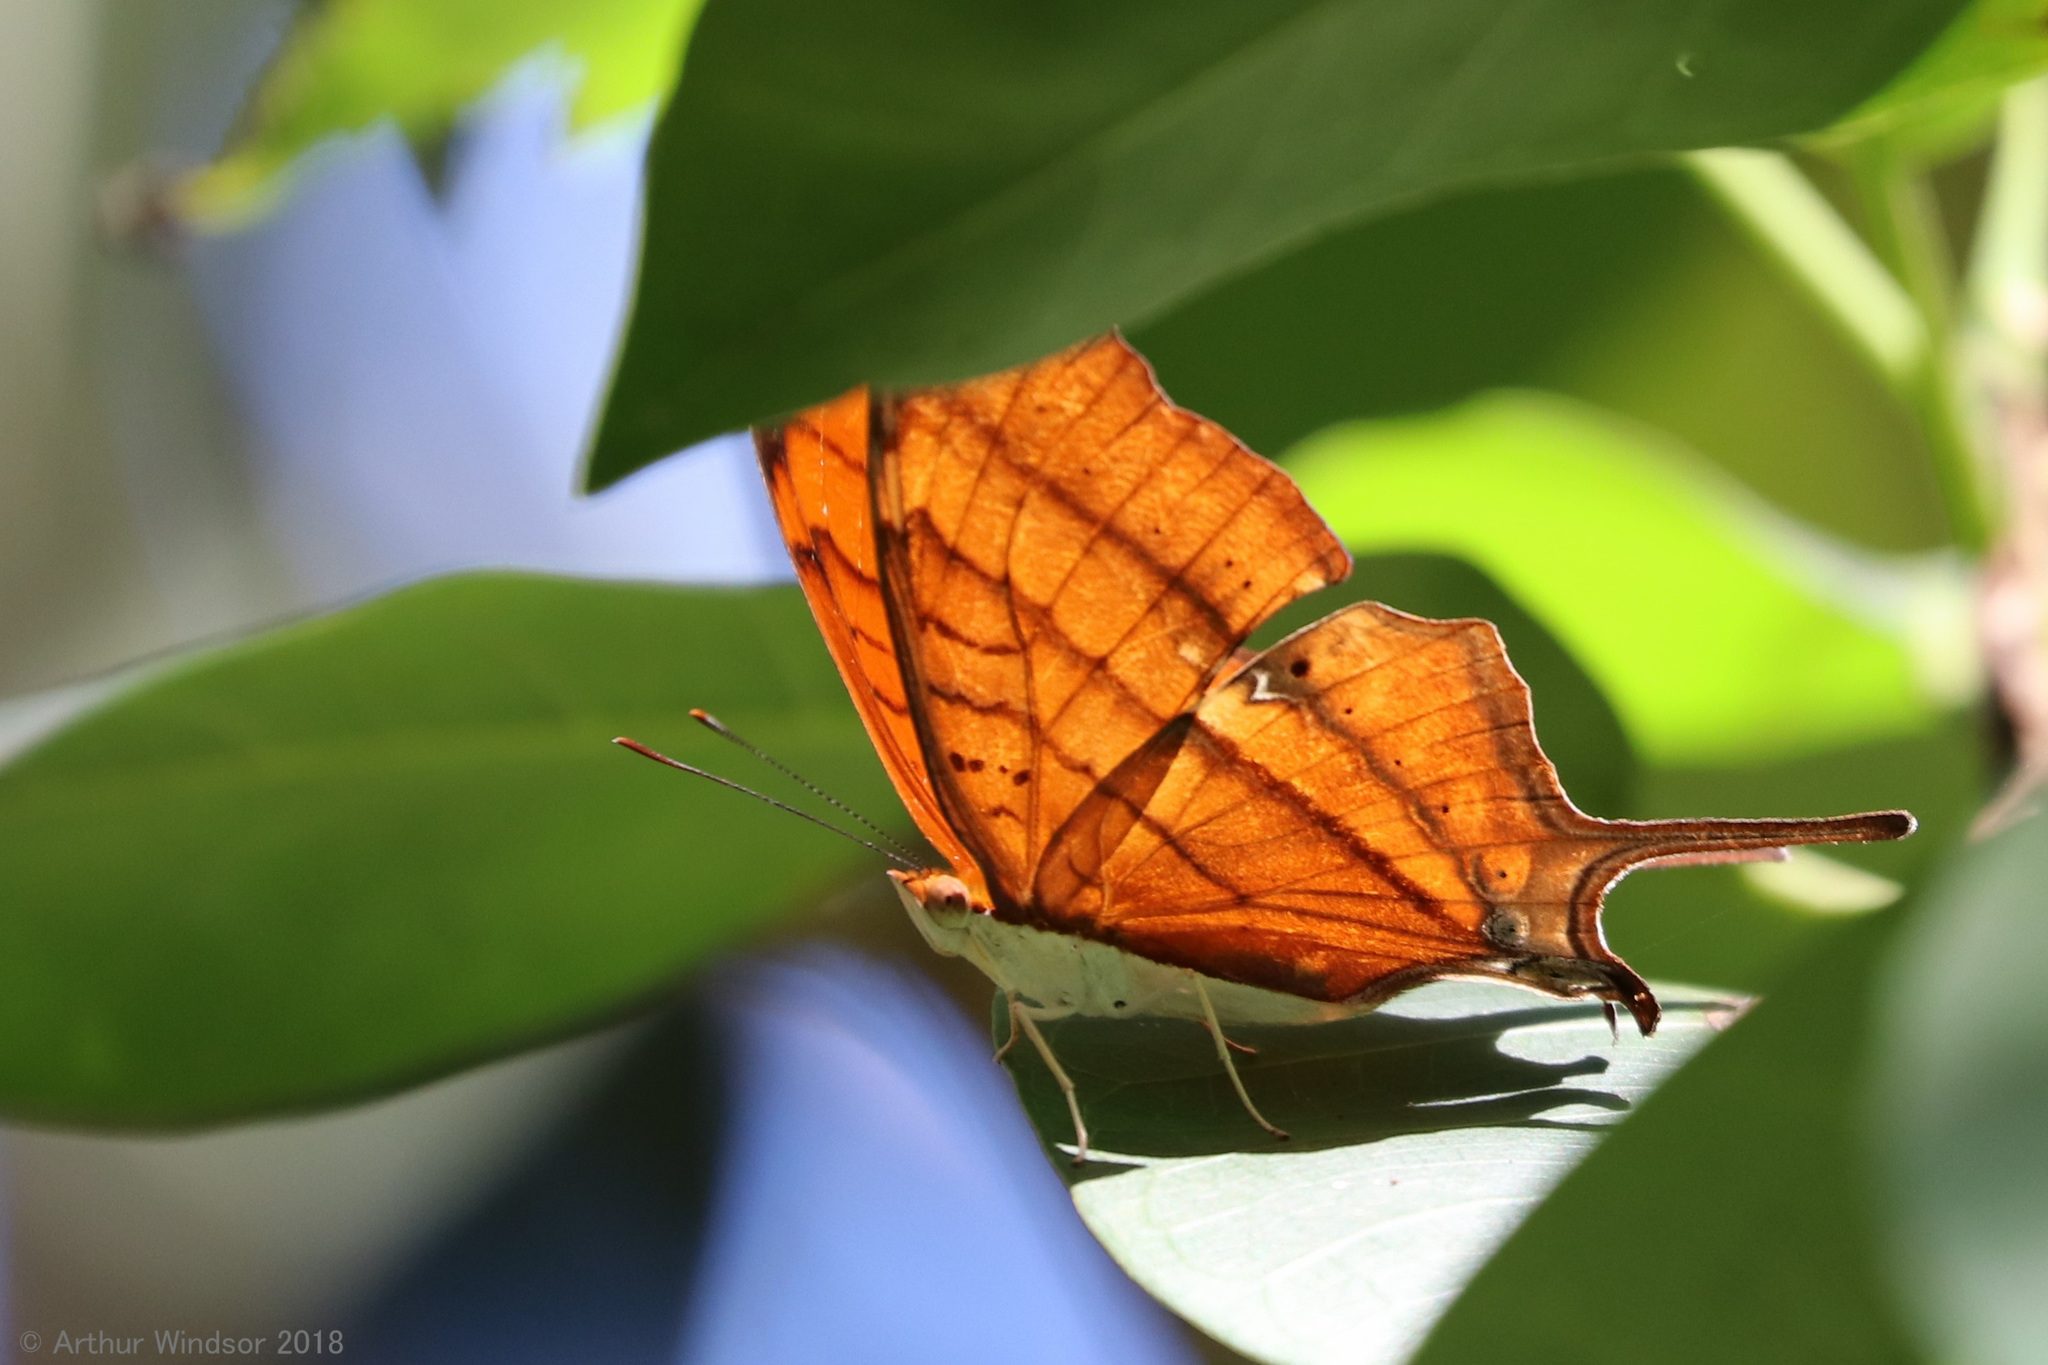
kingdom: Animalia
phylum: Arthropoda
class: Insecta
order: Lepidoptera
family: Nymphalidae
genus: Marpesia
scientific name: Marpesia petreus
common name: Red dagger wing
